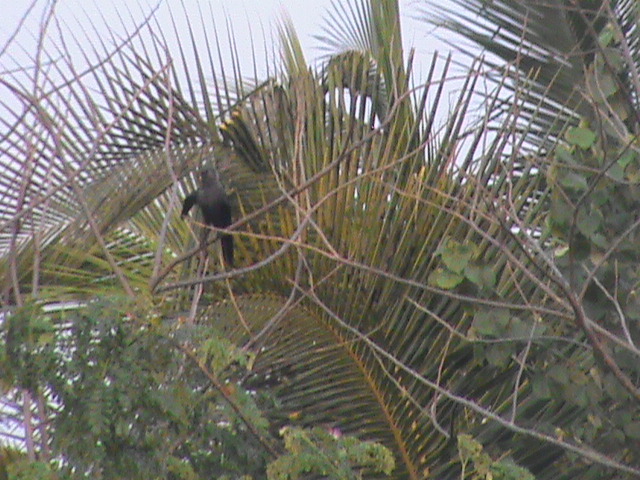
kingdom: Animalia
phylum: Chordata
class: Aves
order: Passeriformes
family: Corvidae
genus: Corvus
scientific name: Corvus splendens
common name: House crow
